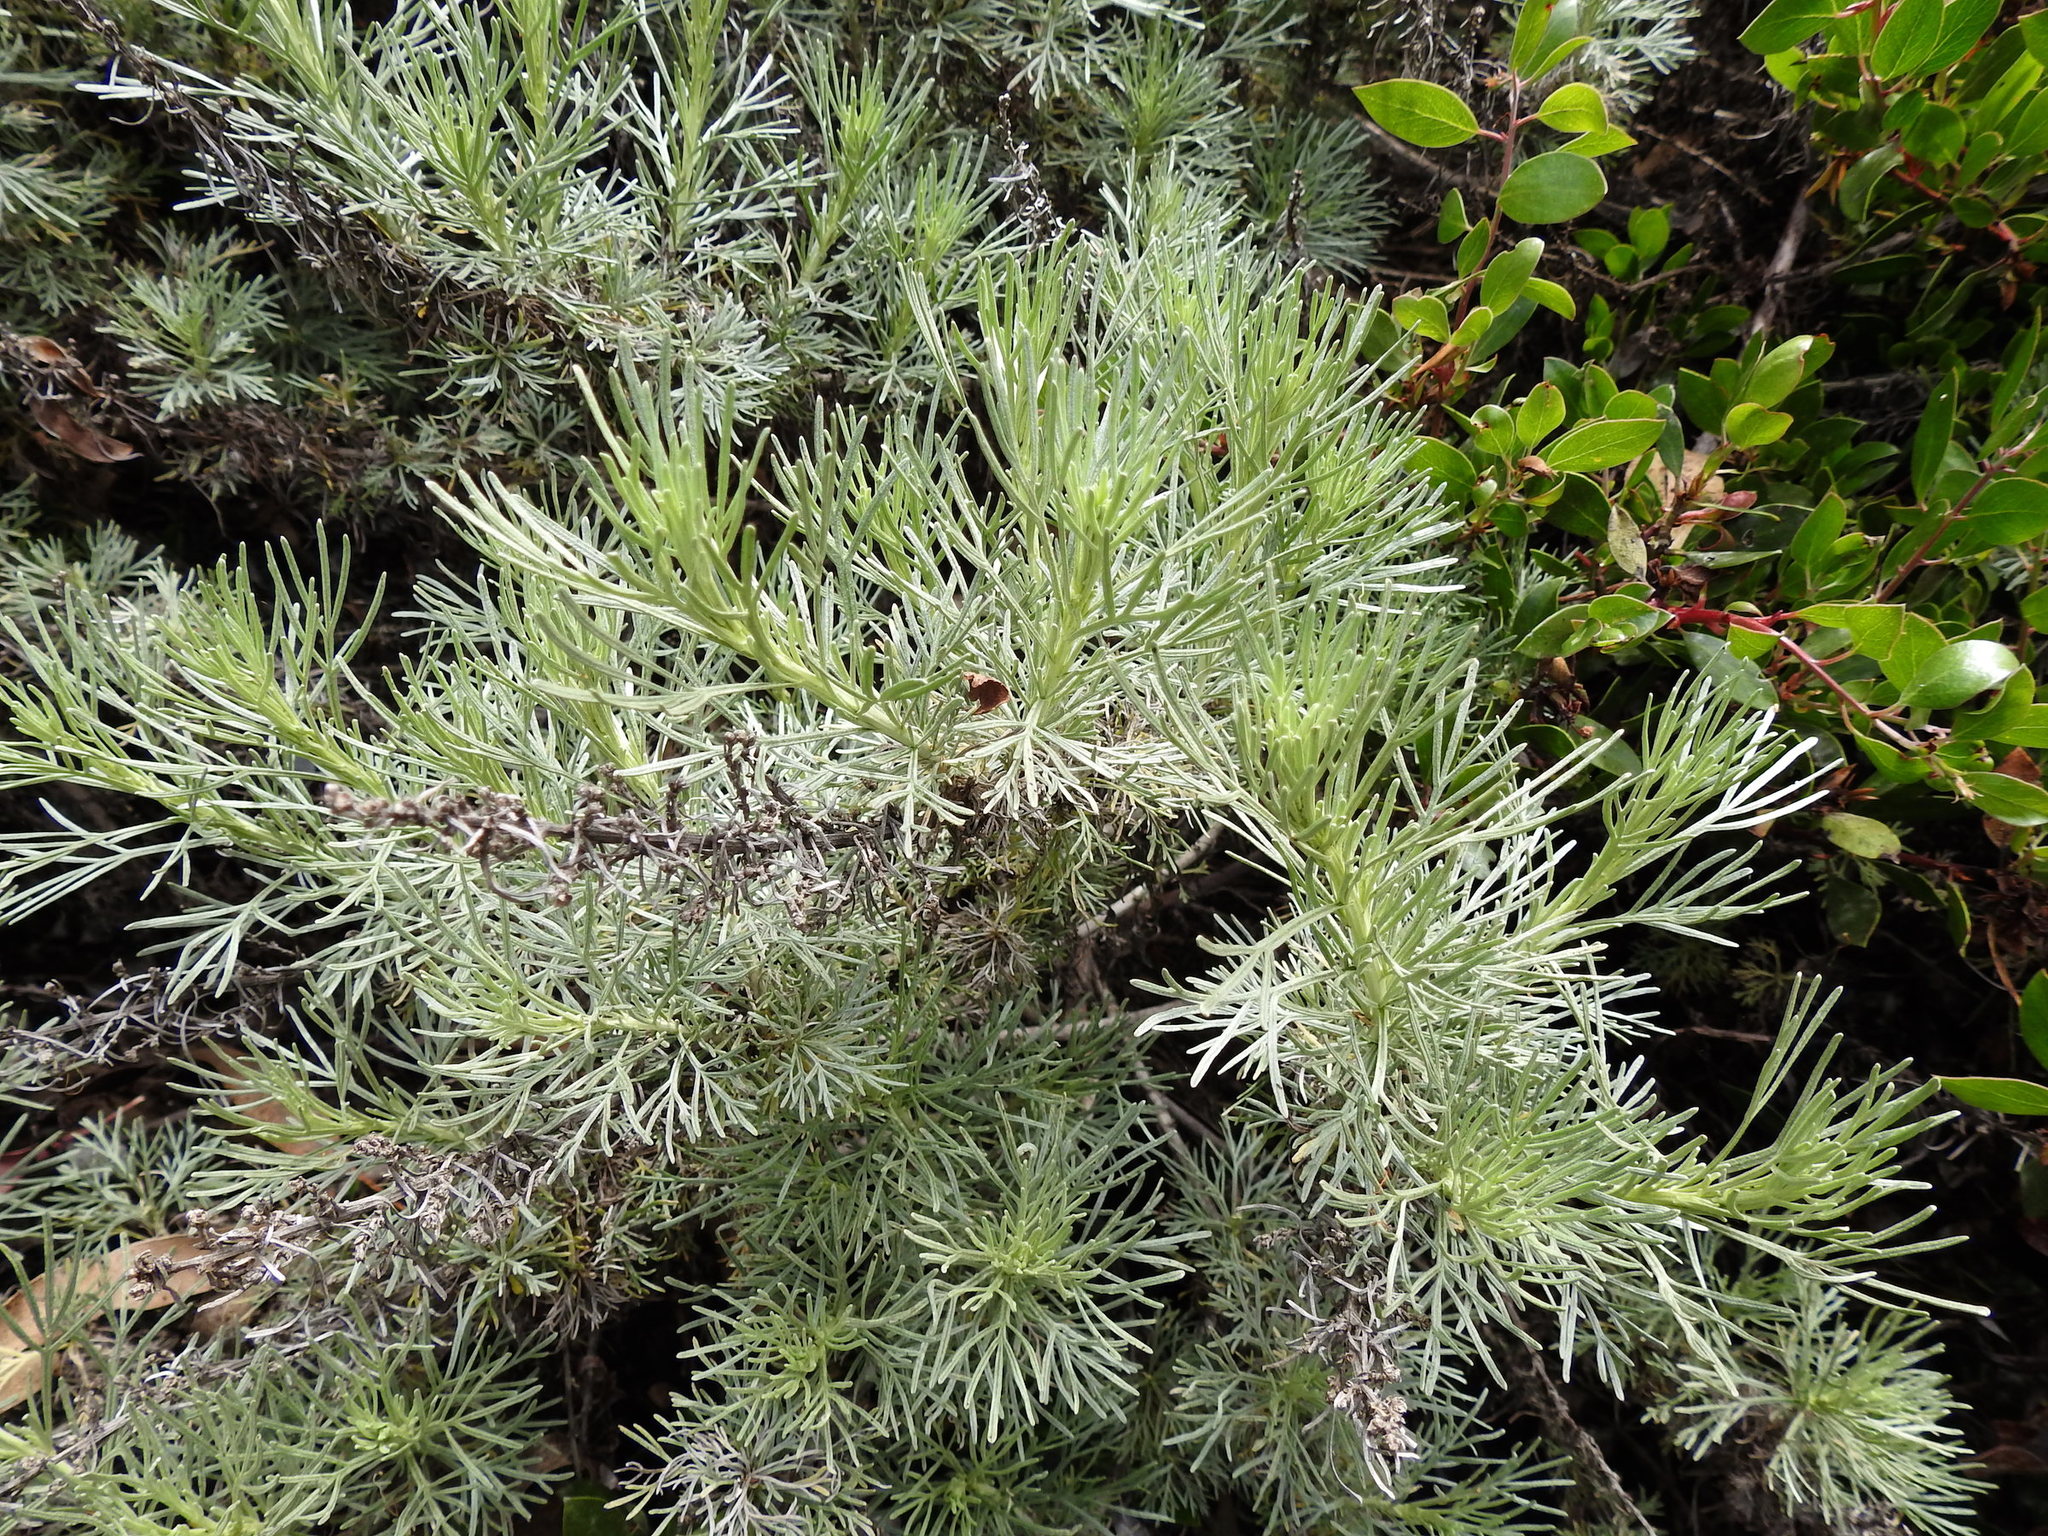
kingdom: Plantae
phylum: Tracheophyta
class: Magnoliopsida
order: Asterales
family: Asteraceae
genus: Artemisia
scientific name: Artemisia californica
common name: California sagebrush
